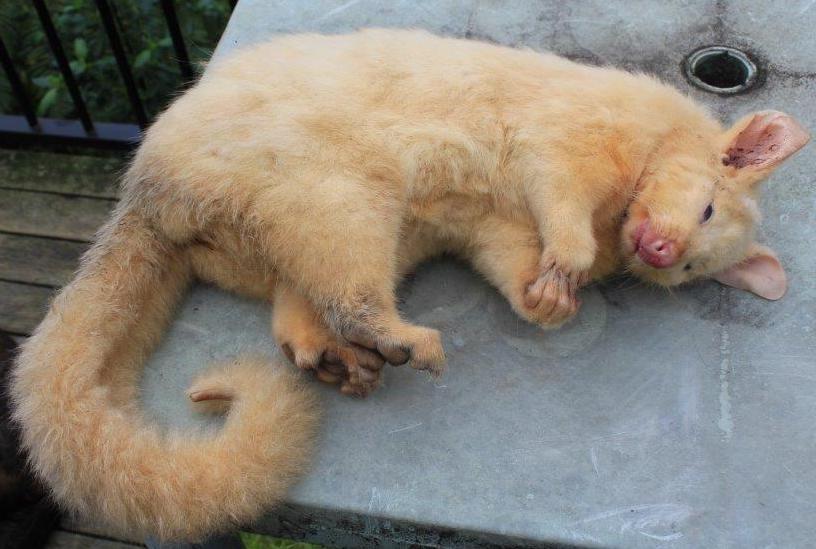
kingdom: Animalia
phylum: Chordata
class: Mammalia
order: Diprotodontia
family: Phalangeridae
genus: Trichosurus
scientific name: Trichosurus vulpecula
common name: Common brushtail
